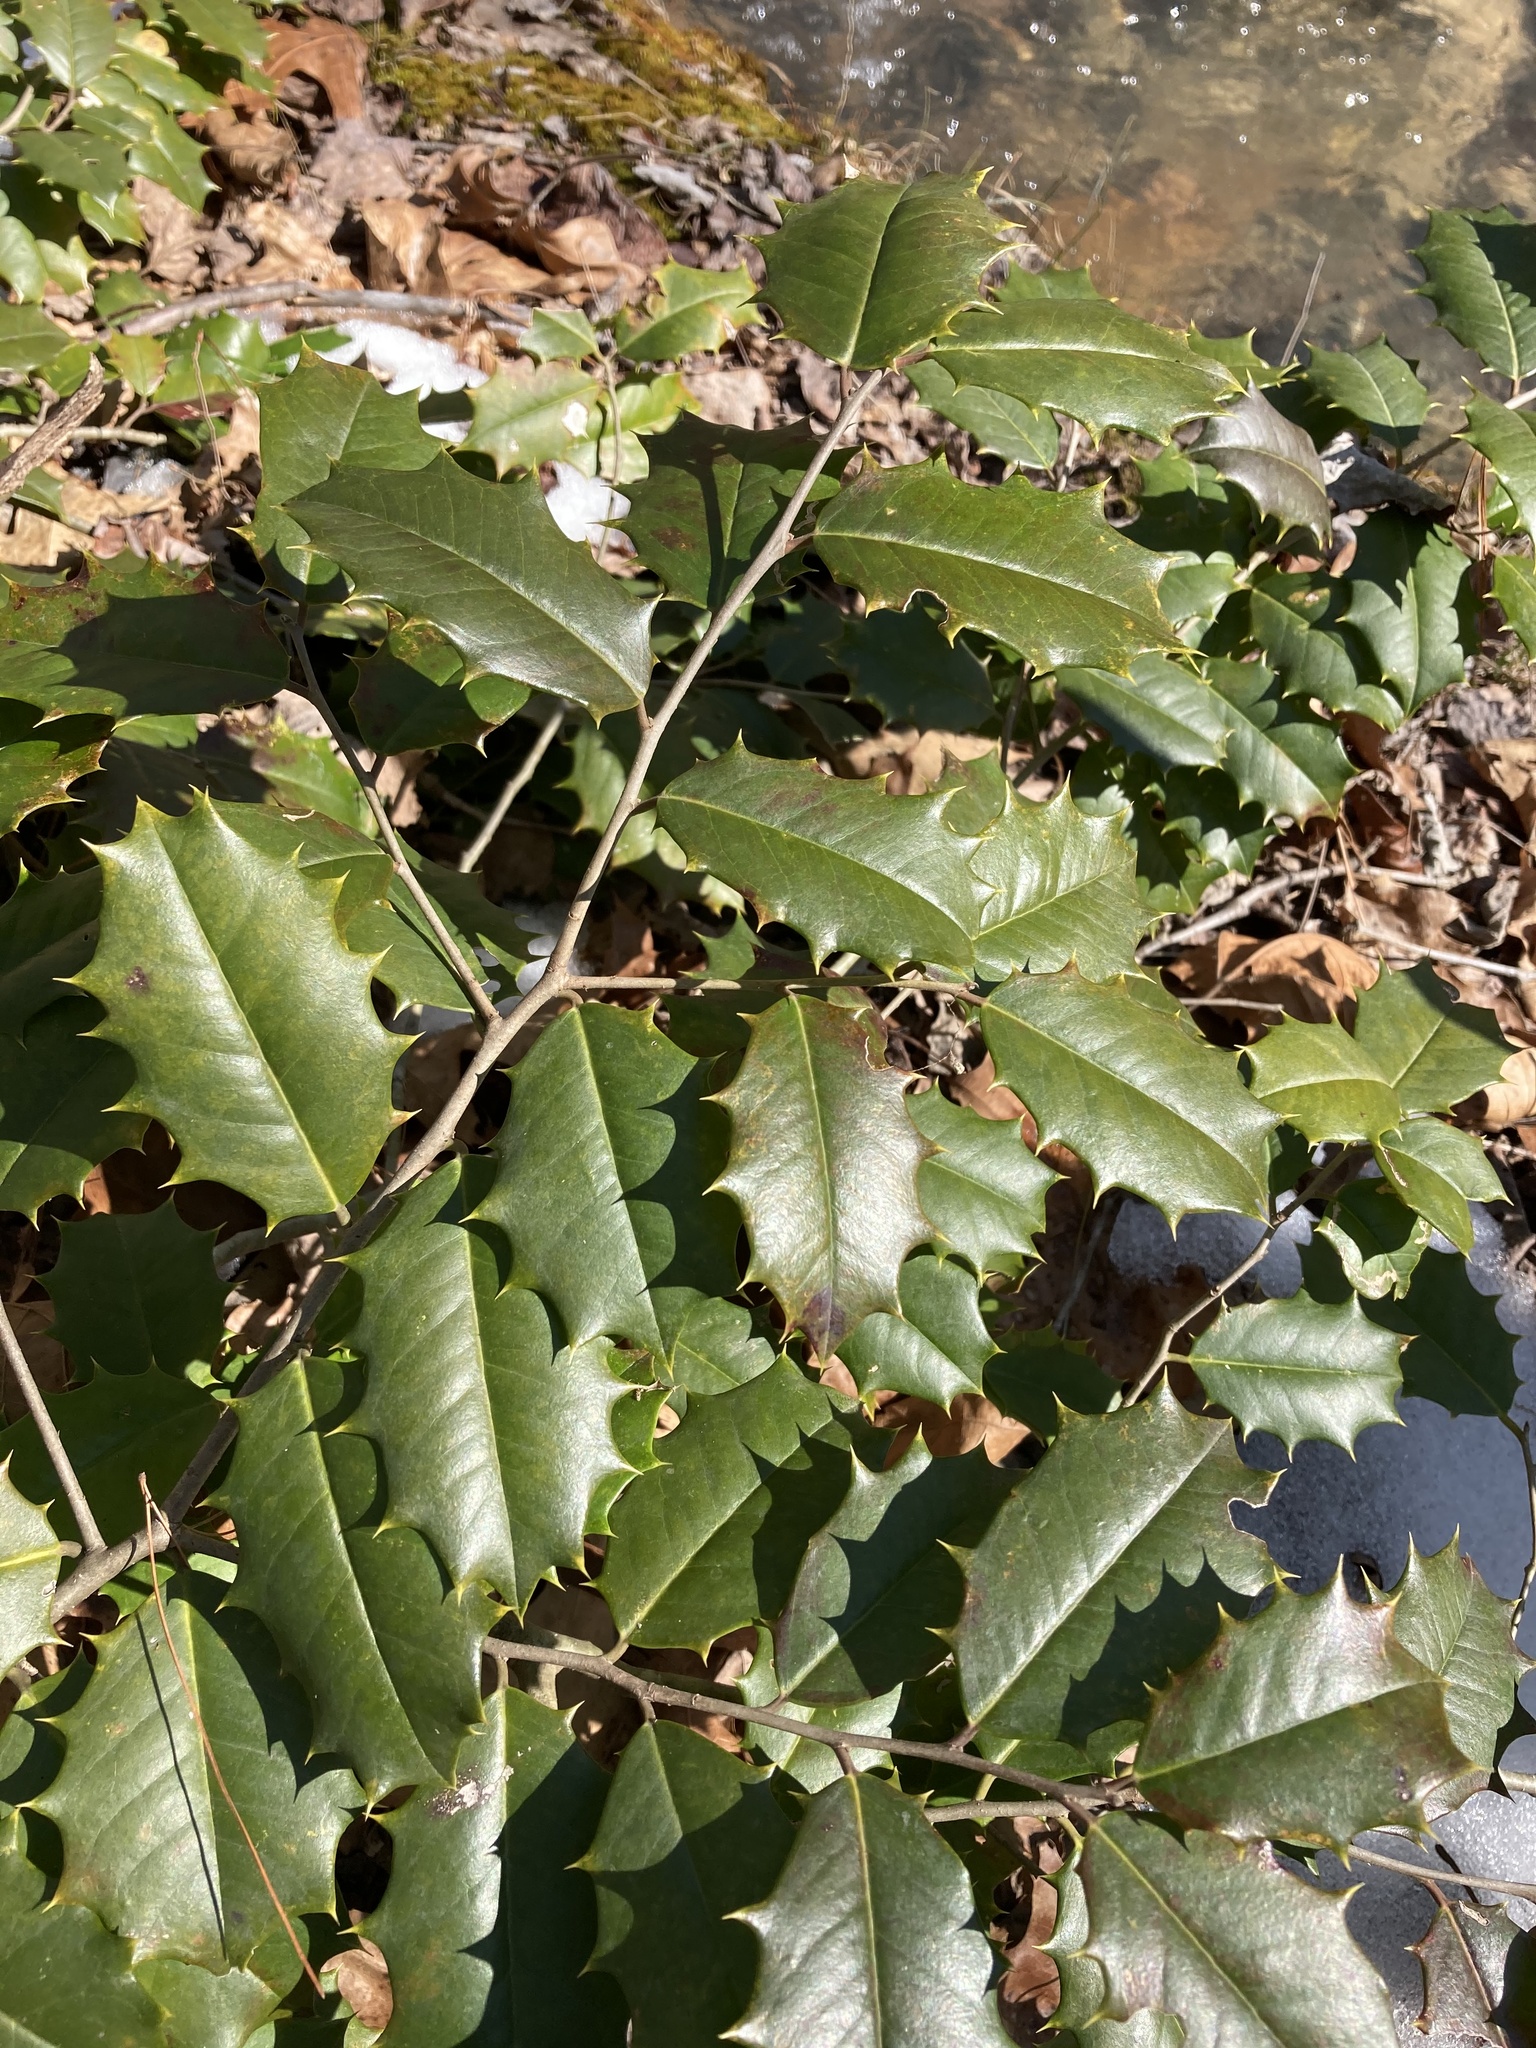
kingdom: Plantae
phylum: Tracheophyta
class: Magnoliopsida
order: Aquifoliales
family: Aquifoliaceae
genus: Ilex
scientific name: Ilex opaca
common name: American holly
